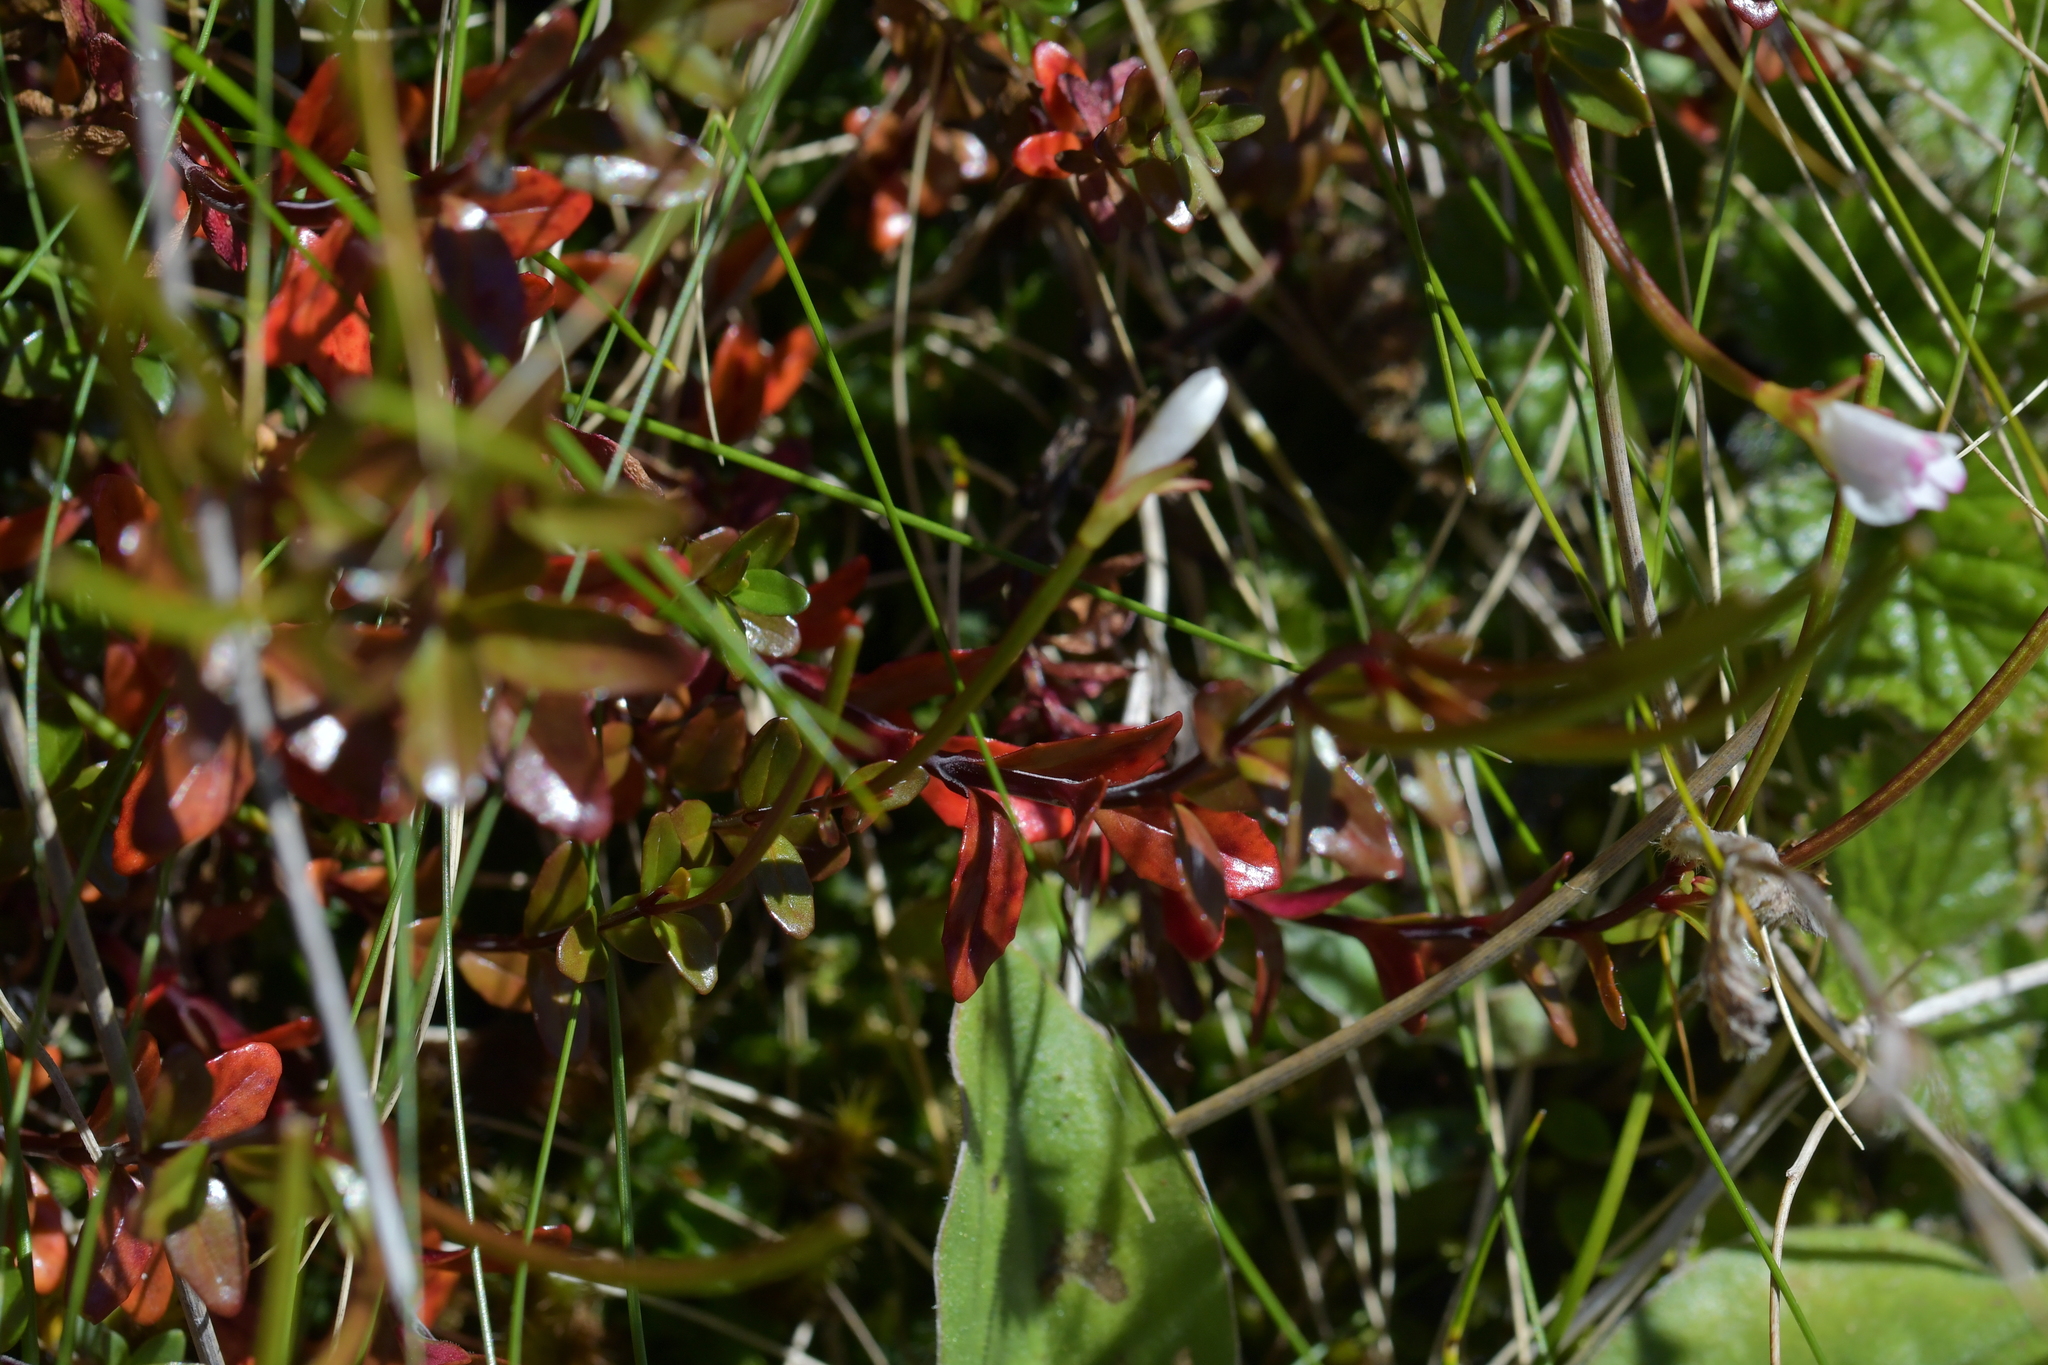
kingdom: Plantae
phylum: Tracheophyta
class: Magnoliopsida
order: Myrtales
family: Onagraceae
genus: Epilobium
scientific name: Epilobium glabellum
